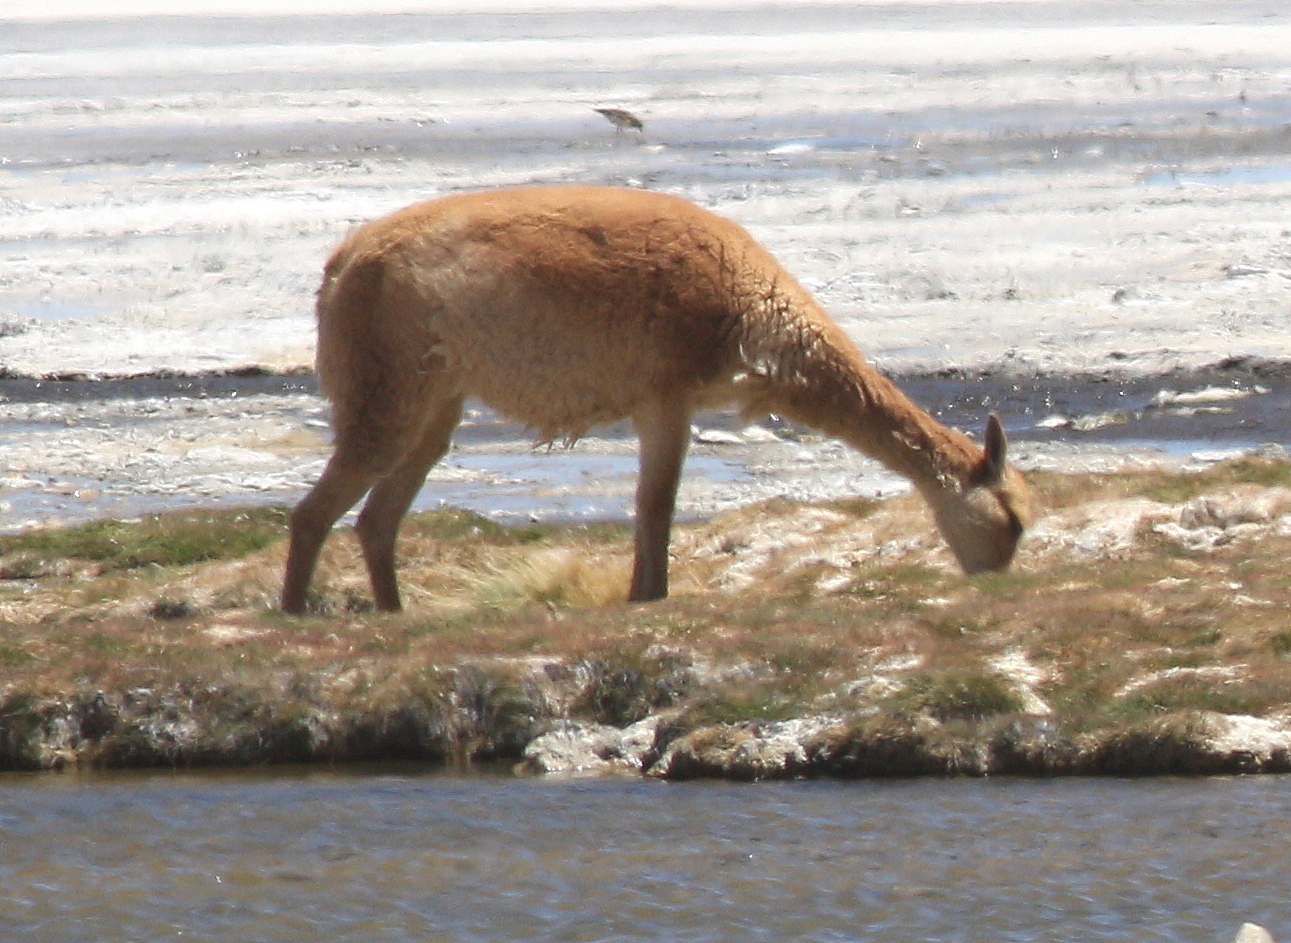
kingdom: Animalia
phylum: Chordata
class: Mammalia
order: Artiodactyla
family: Camelidae
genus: Vicugna
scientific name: Vicugna vicugna
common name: Vicugna
